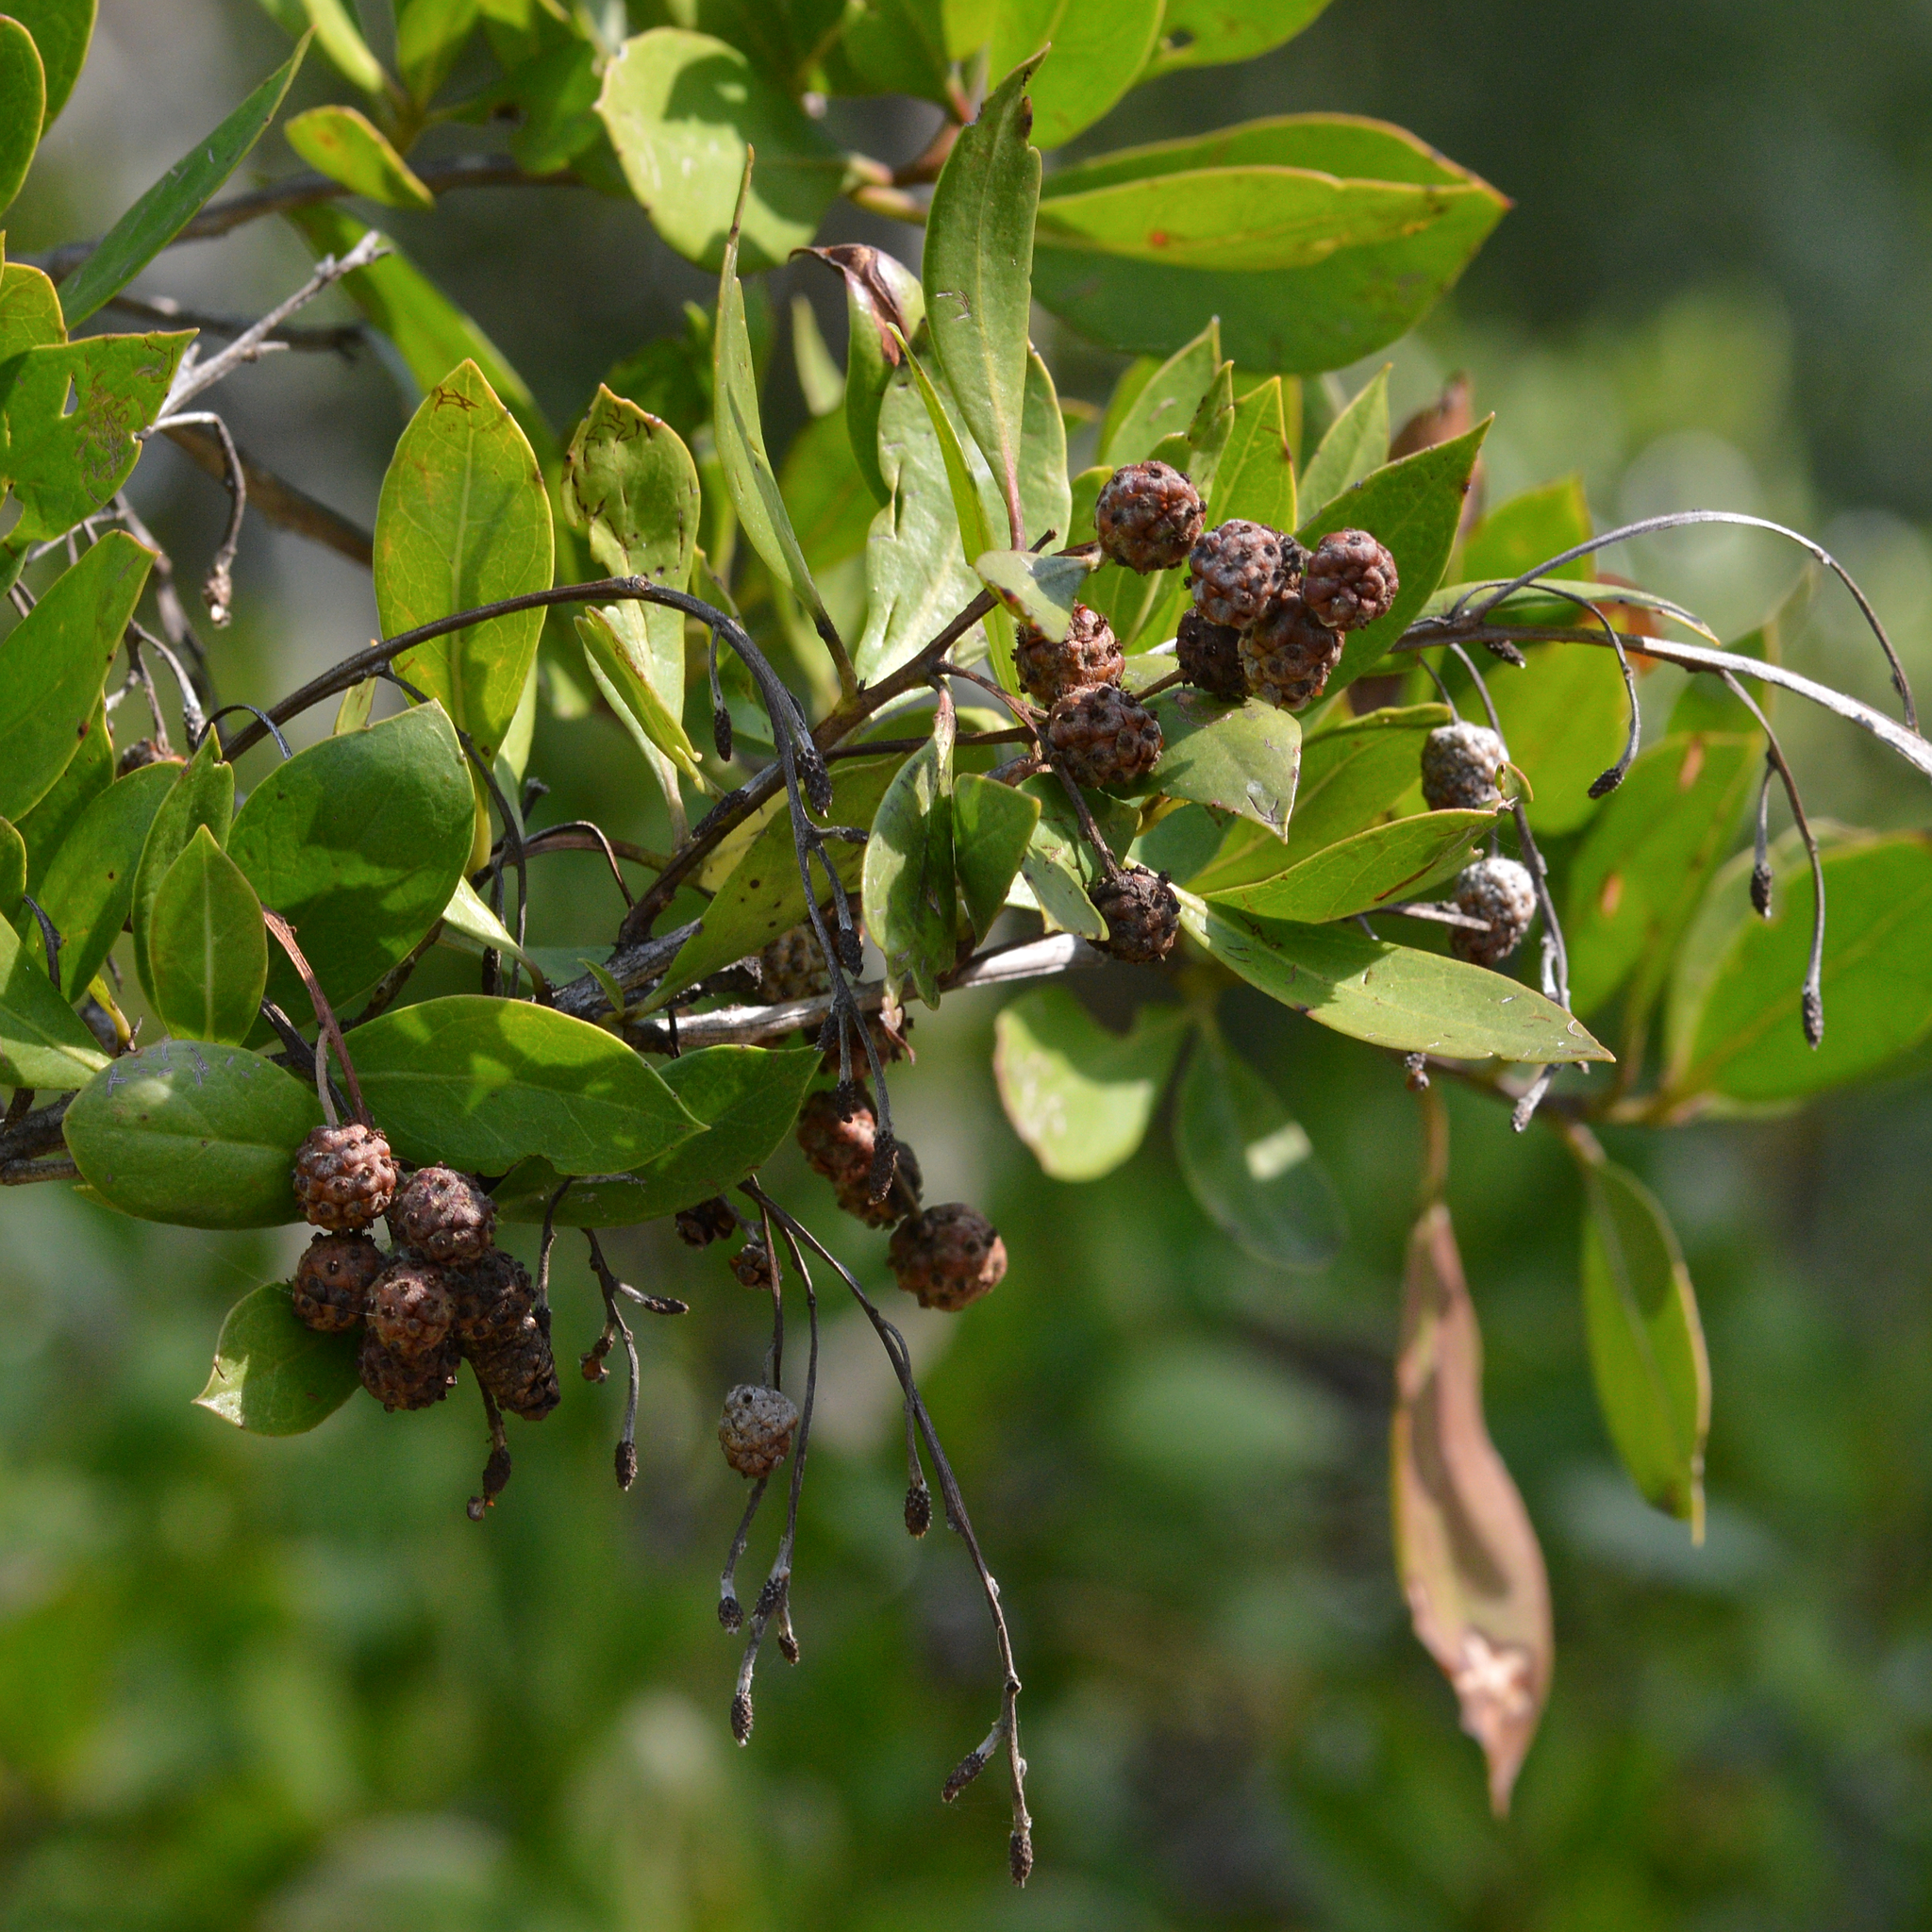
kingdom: Plantae
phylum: Tracheophyta
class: Magnoliopsida
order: Myrtales
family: Combretaceae
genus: Conocarpus
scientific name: Conocarpus erectus
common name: Button mangrove
